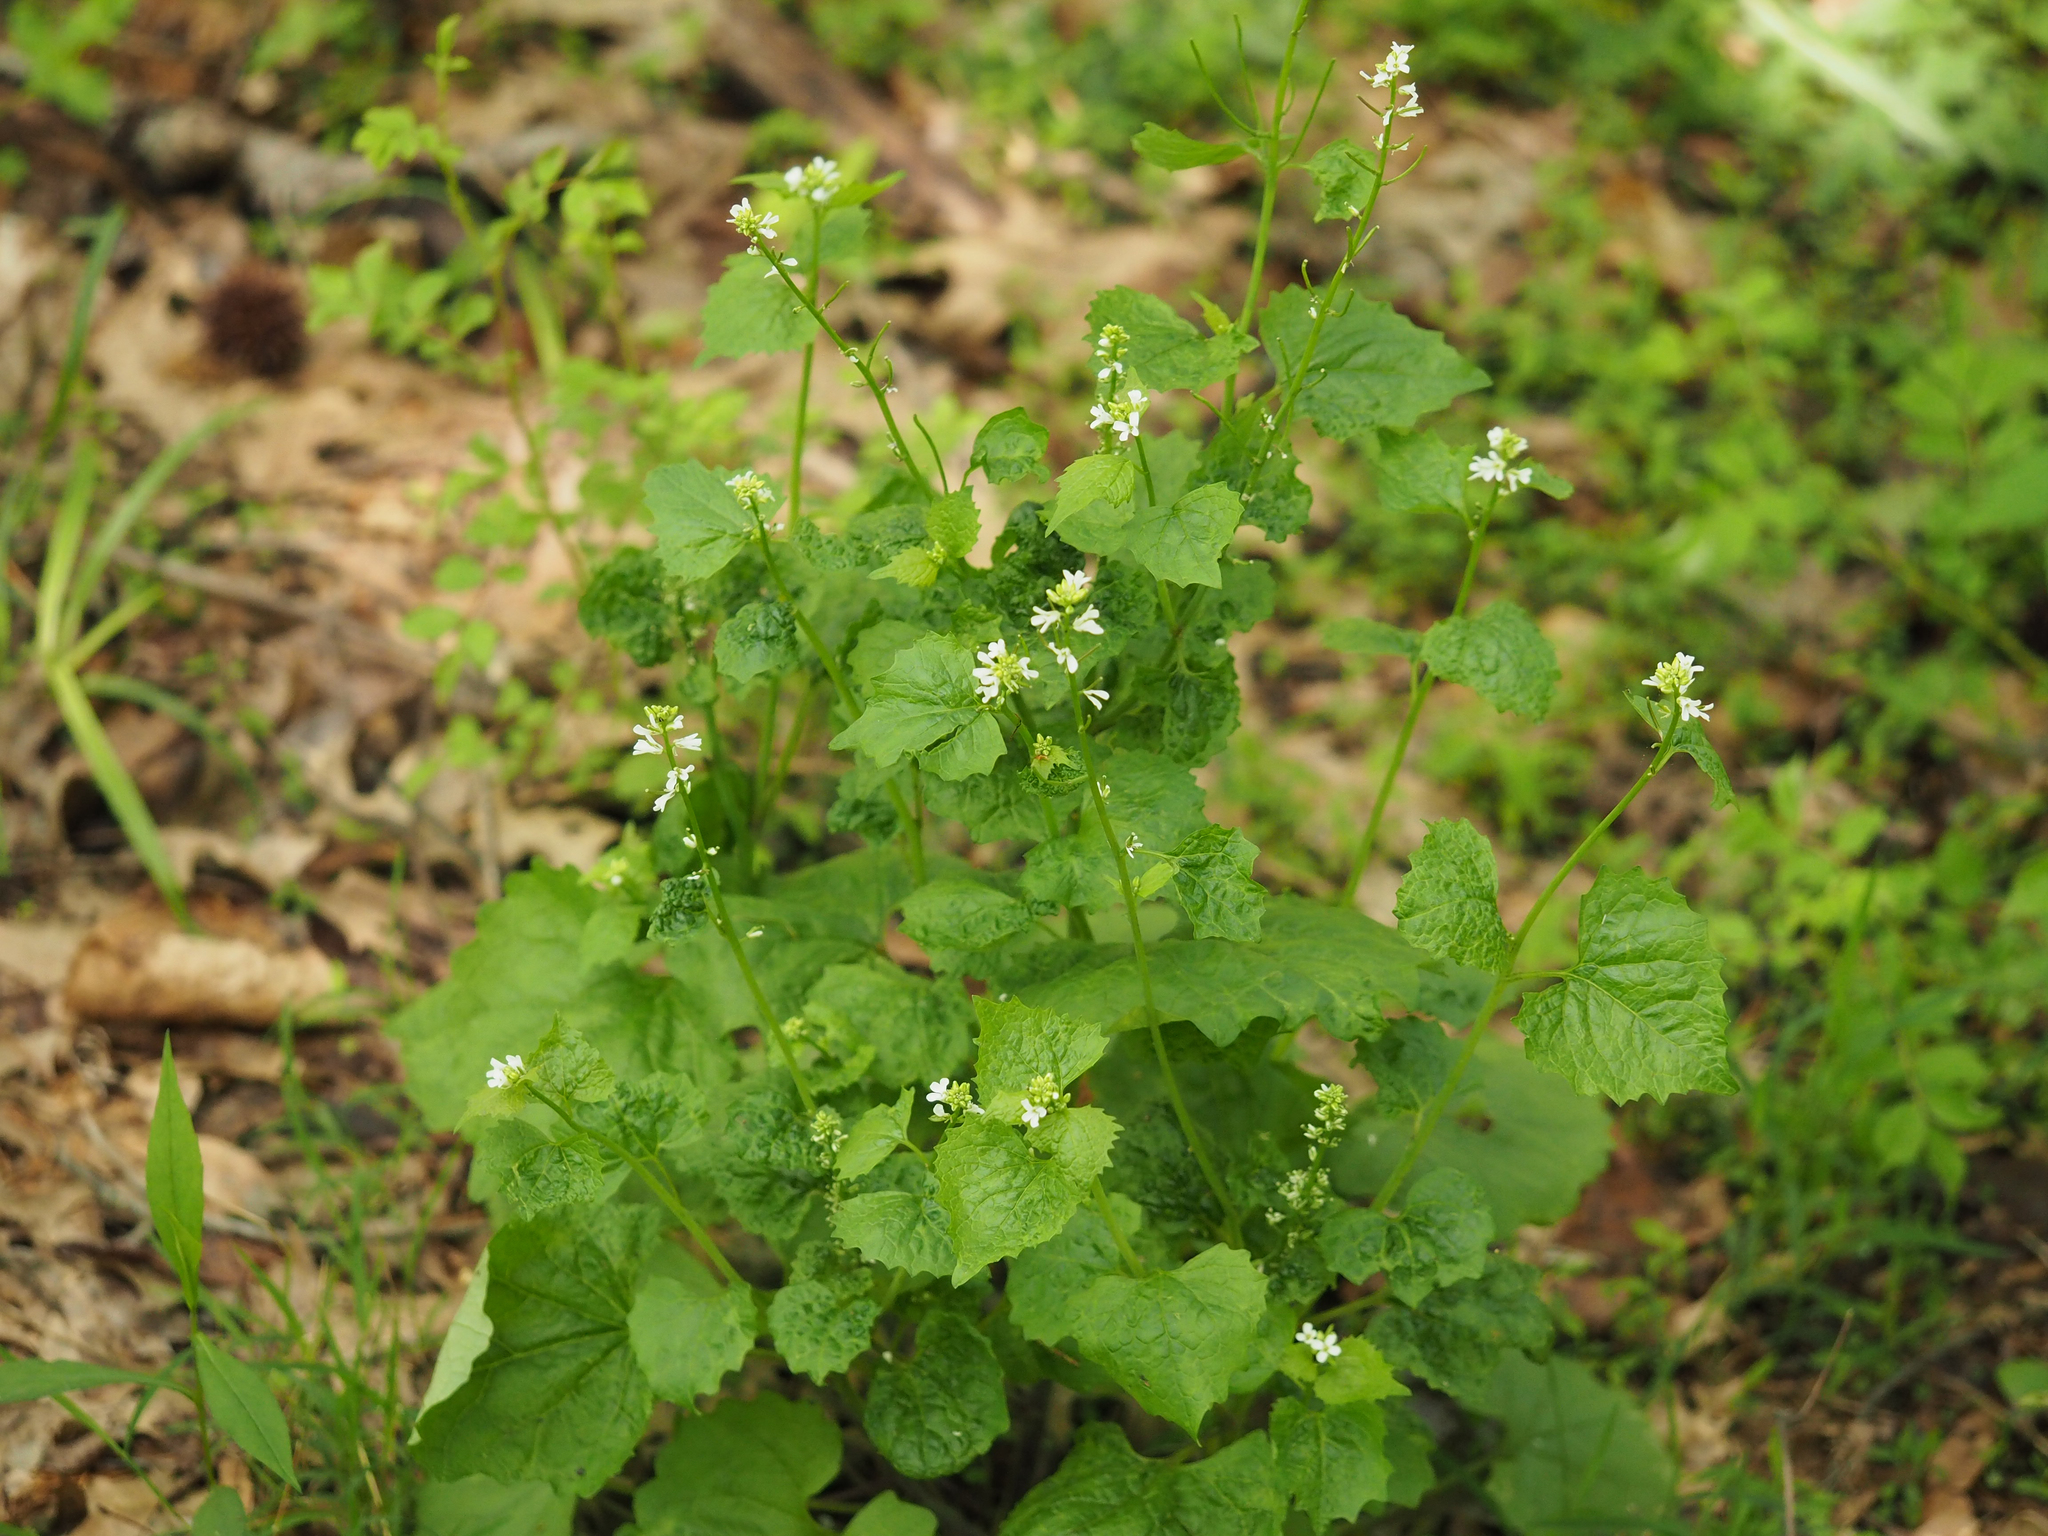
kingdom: Plantae
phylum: Tracheophyta
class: Magnoliopsida
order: Brassicales
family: Brassicaceae
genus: Alliaria
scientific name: Alliaria petiolata
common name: Garlic mustard
